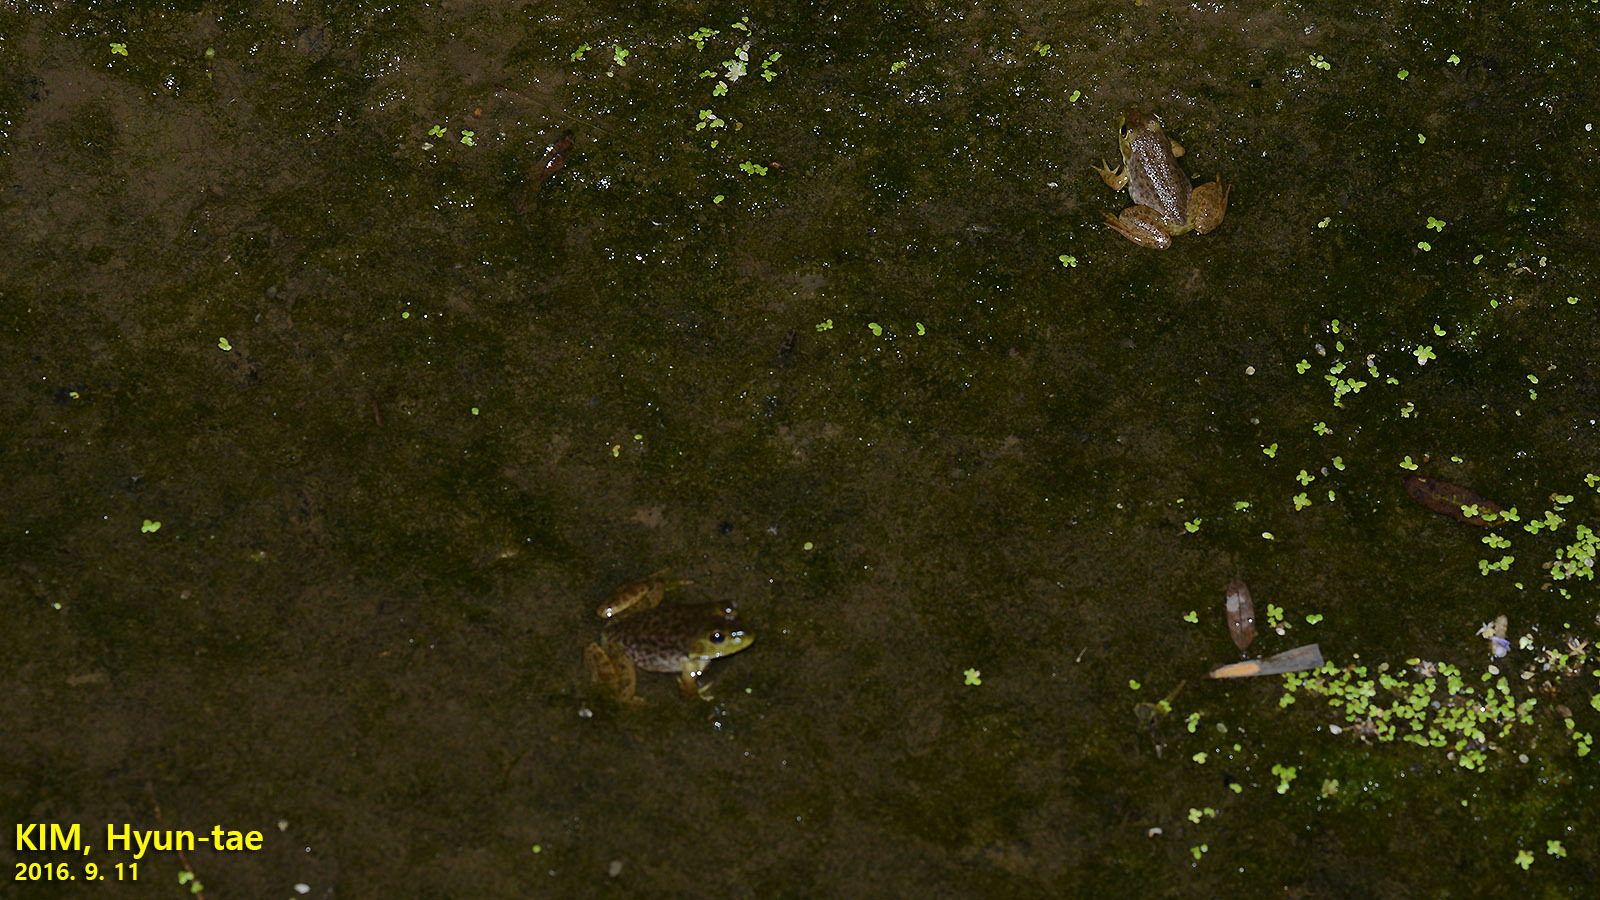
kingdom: Animalia
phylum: Chordata
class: Amphibia
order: Anura
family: Ranidae
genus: Lithobates
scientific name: Lithobates catesbeianus
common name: American bullfrog
